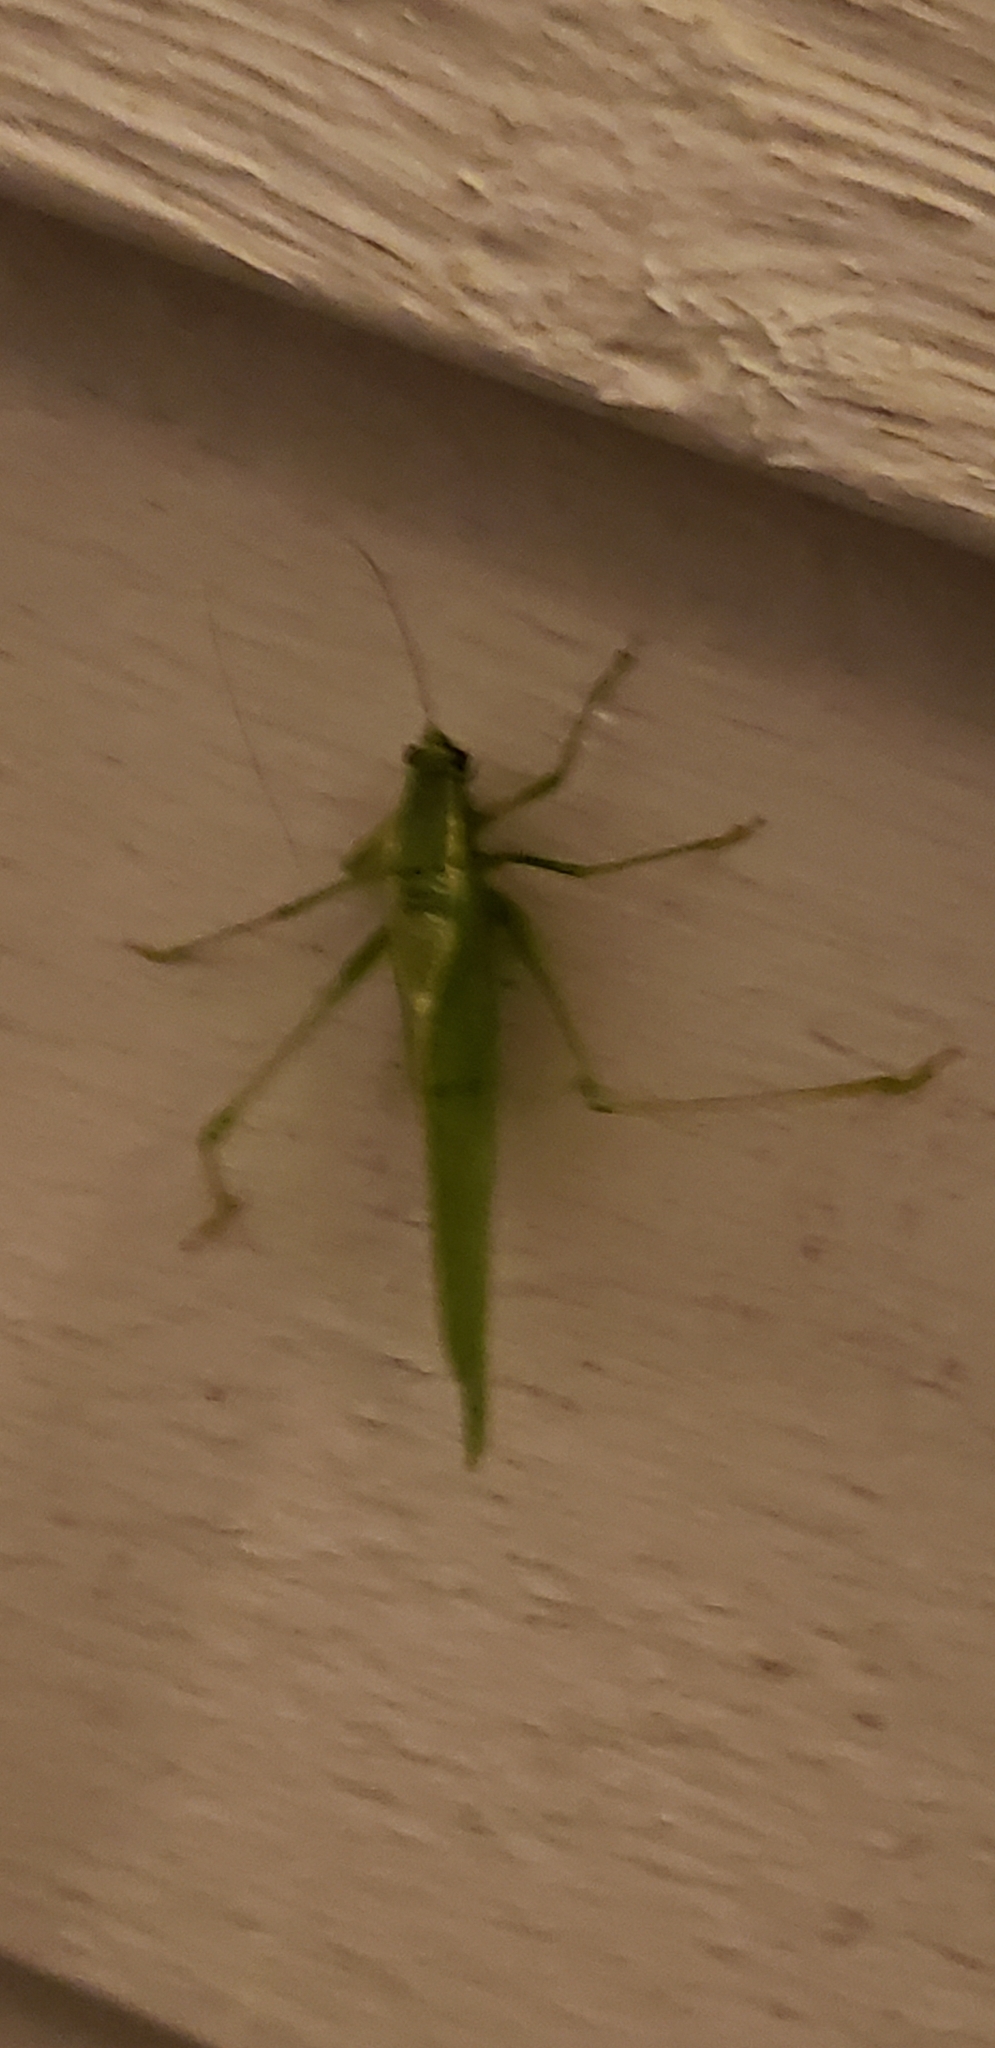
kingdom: Animalia
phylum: Arthropoda
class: Insecta
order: Orthoptera
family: Tettigoniidae
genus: Scudderia
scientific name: Scudderia septentrionalis
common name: Northern bush-katydid
